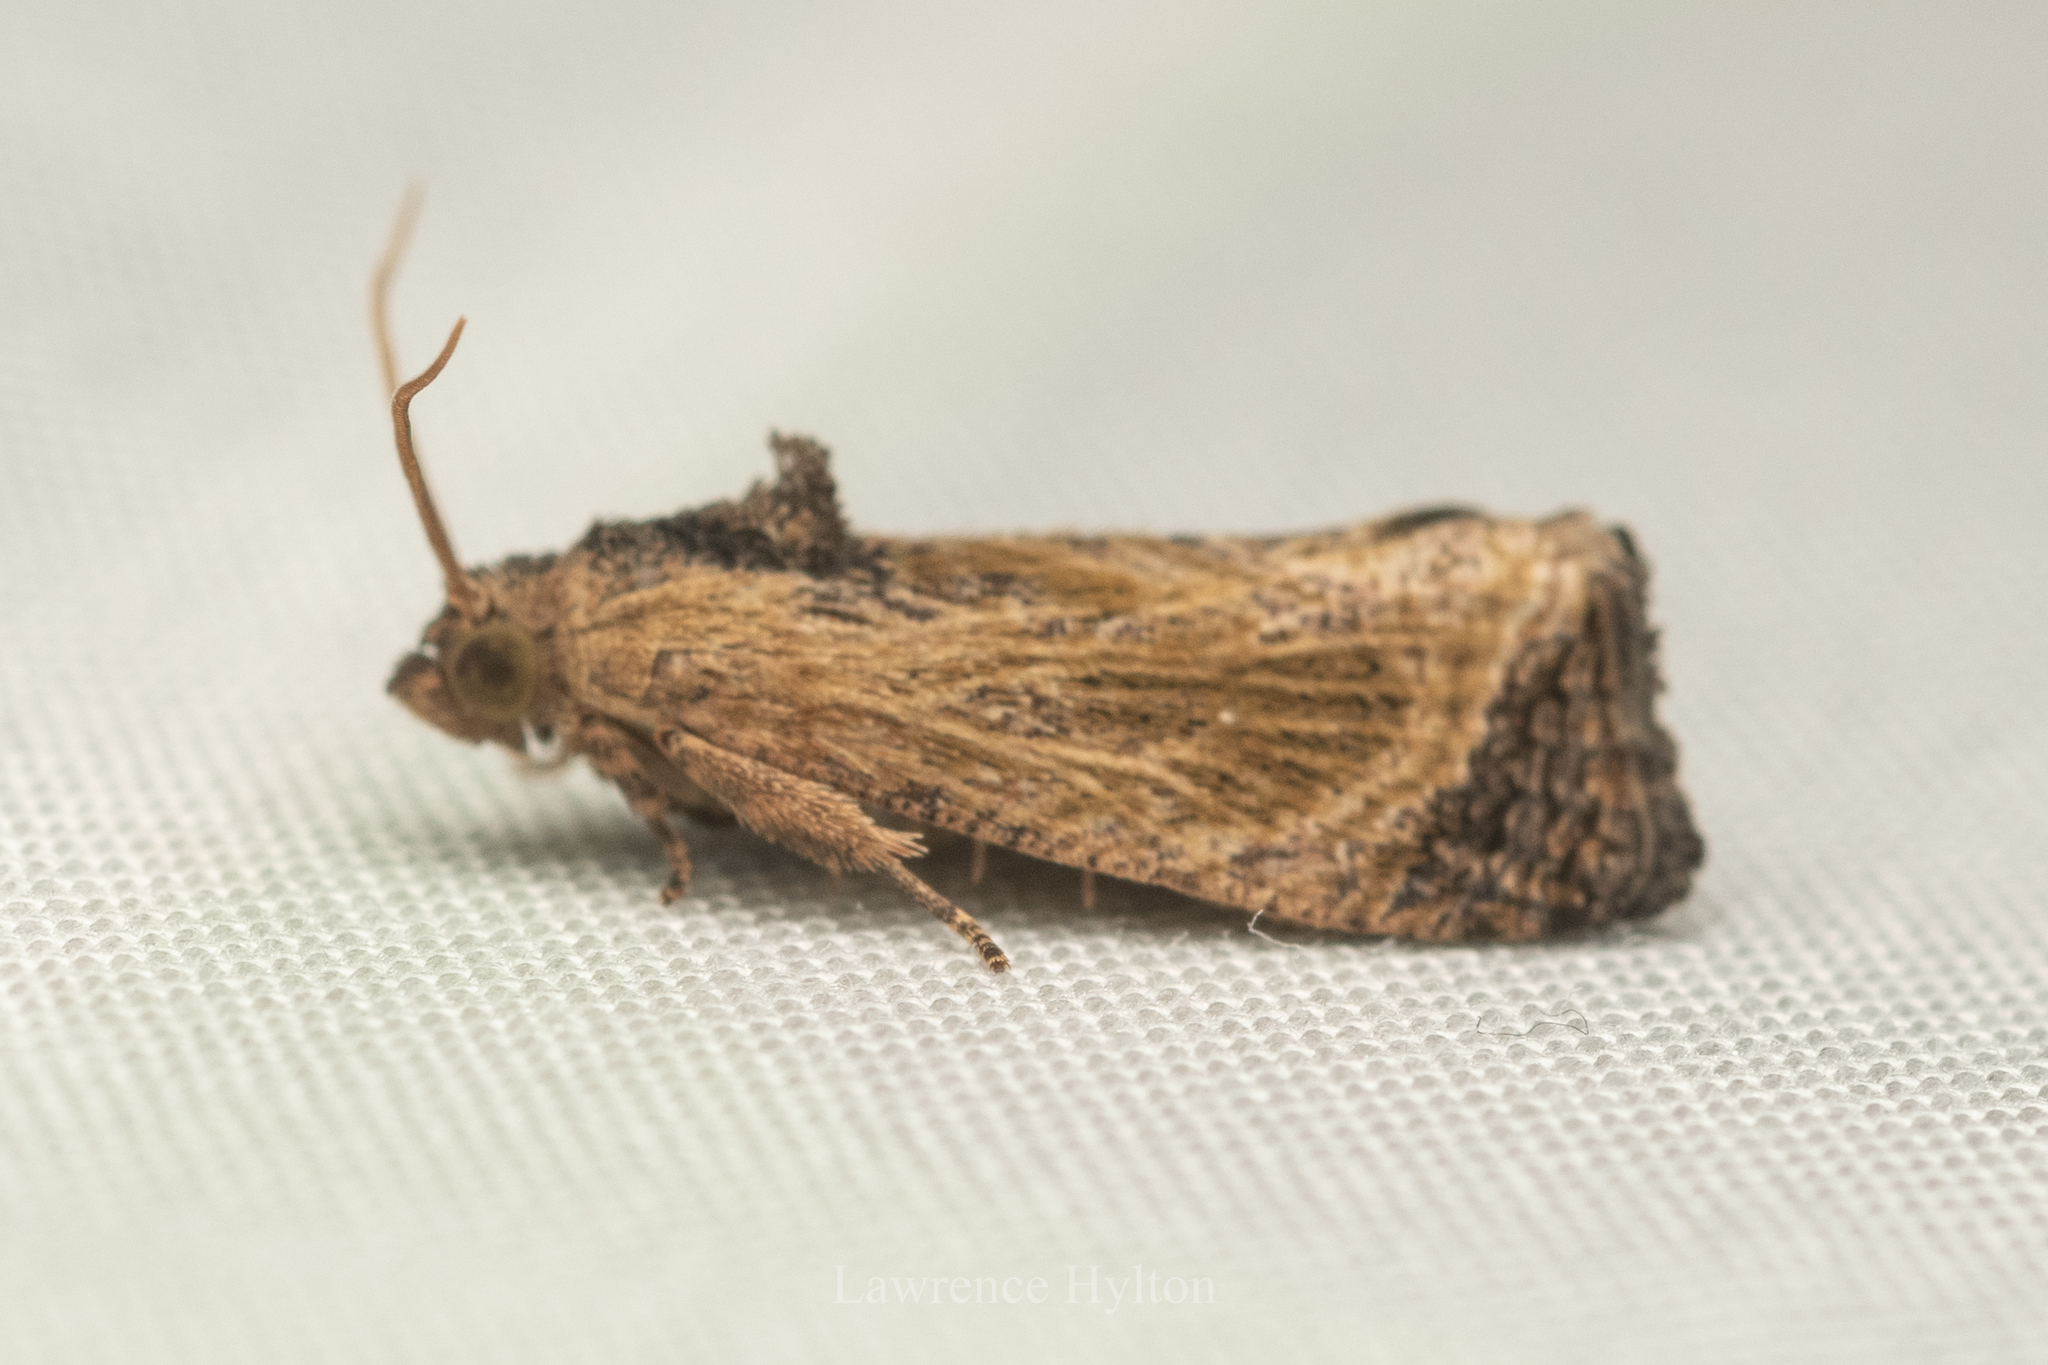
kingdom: Animalia
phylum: Arthropoda
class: Insecta
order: Lepidoptera
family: Tortricidae
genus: Cryptophlebia
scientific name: Cryptophlebia repletana
